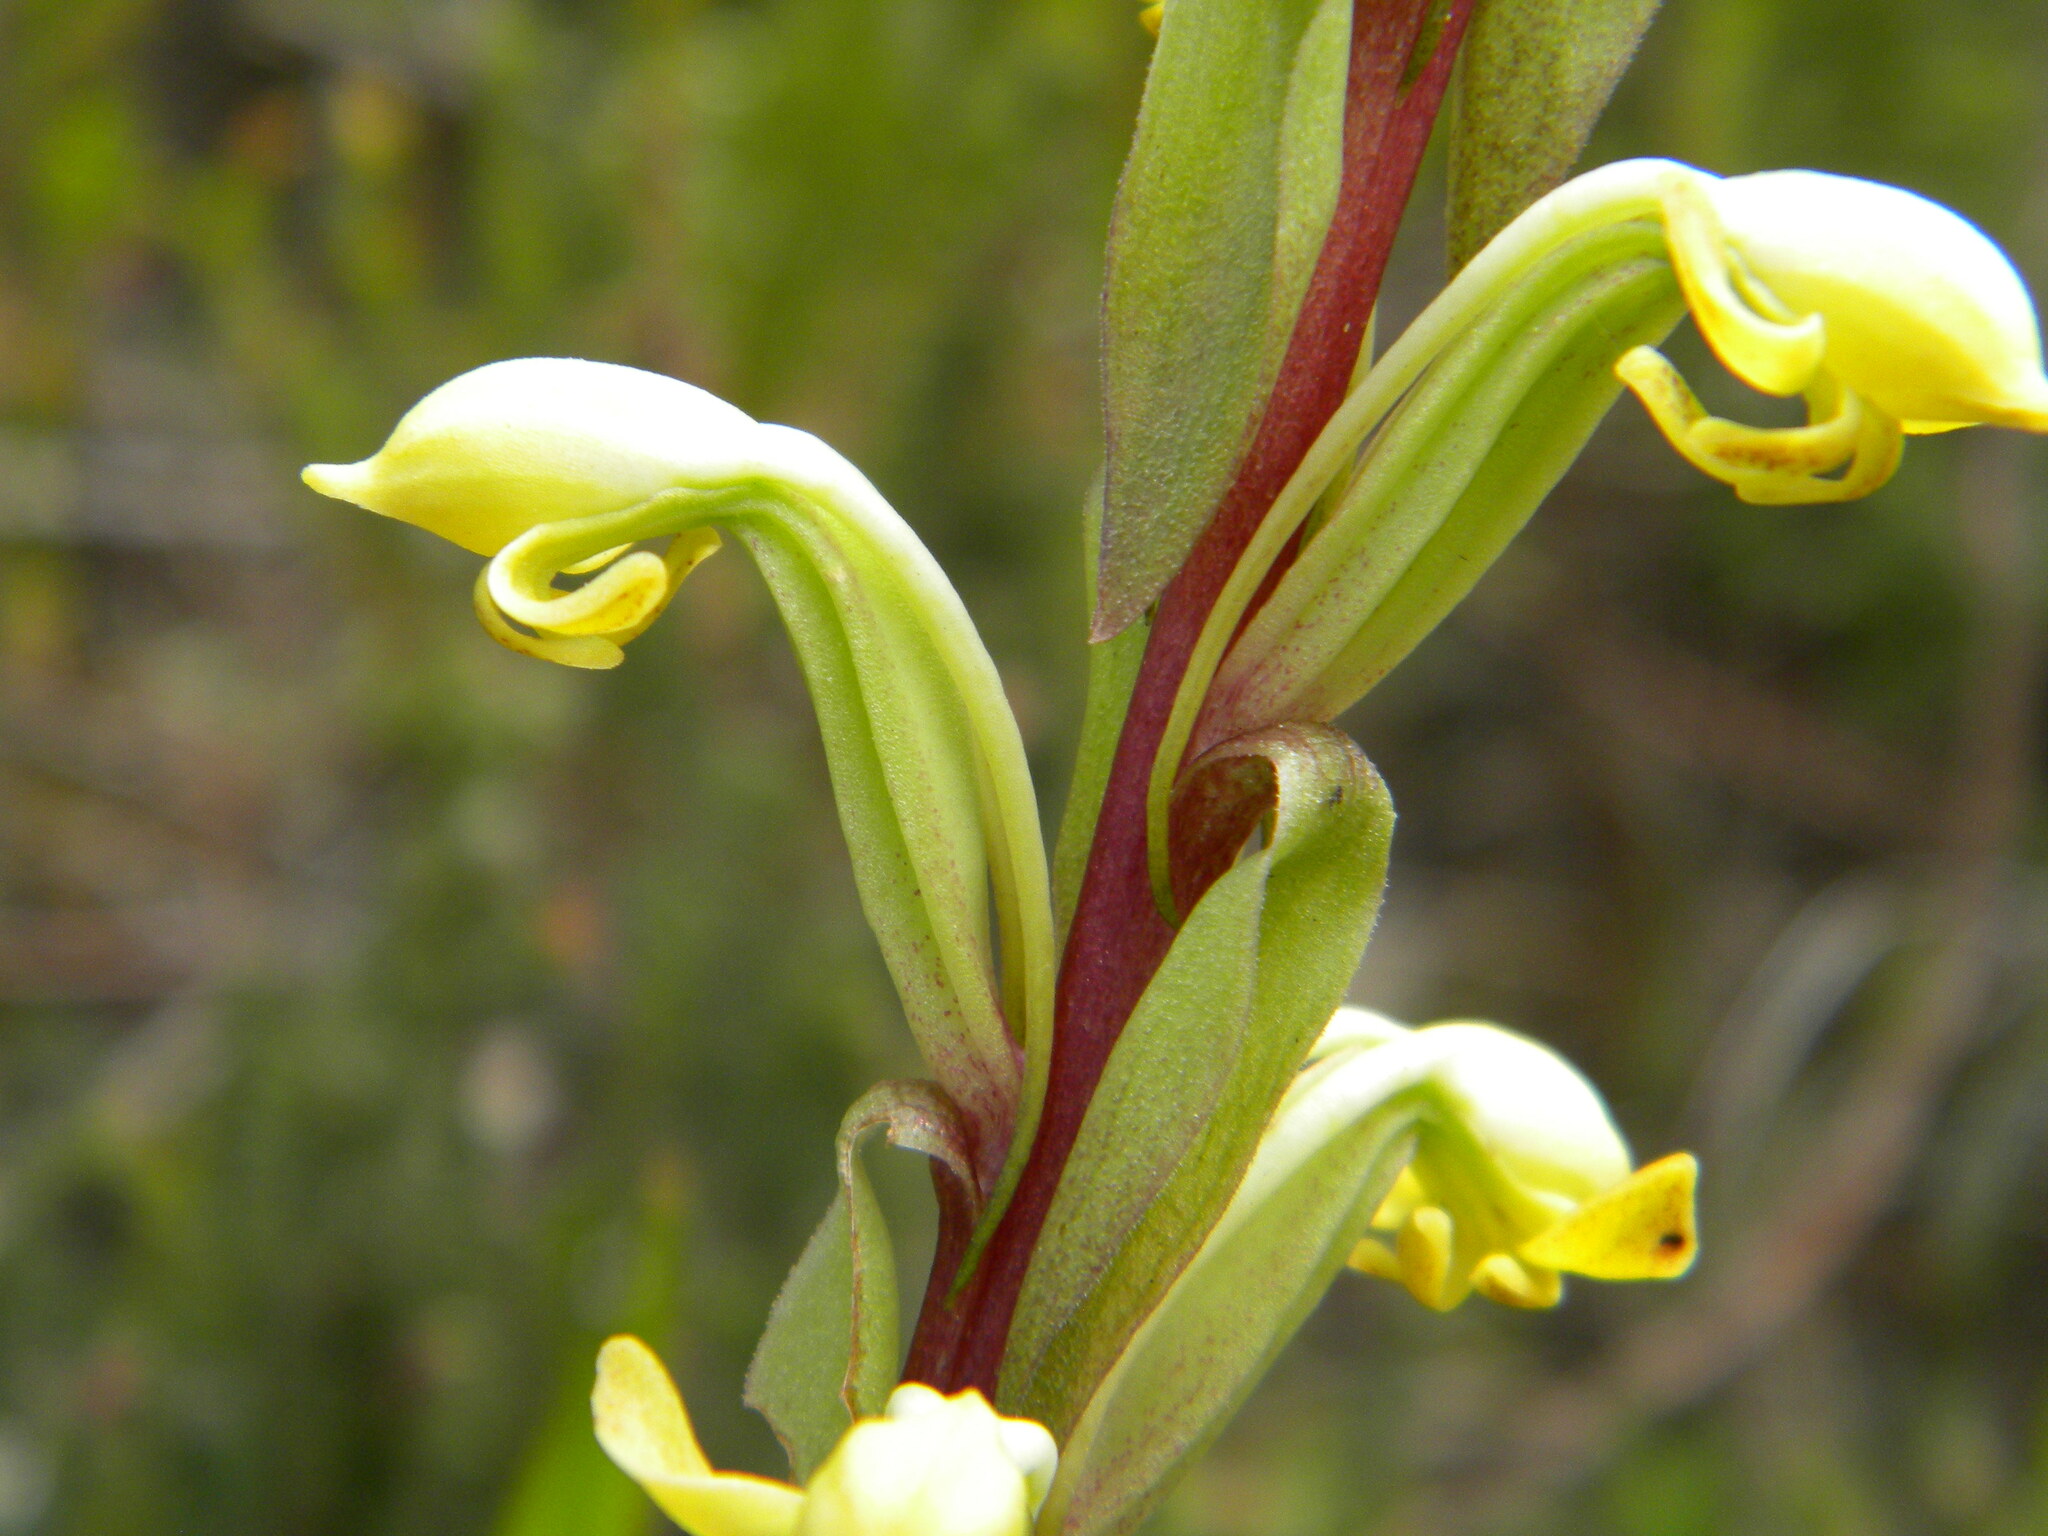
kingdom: Plantae
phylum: Tracheophyta
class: Liliopsida
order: Asparagales
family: Orchidaceae
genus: Satyrium
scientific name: Satyrium bicorne
